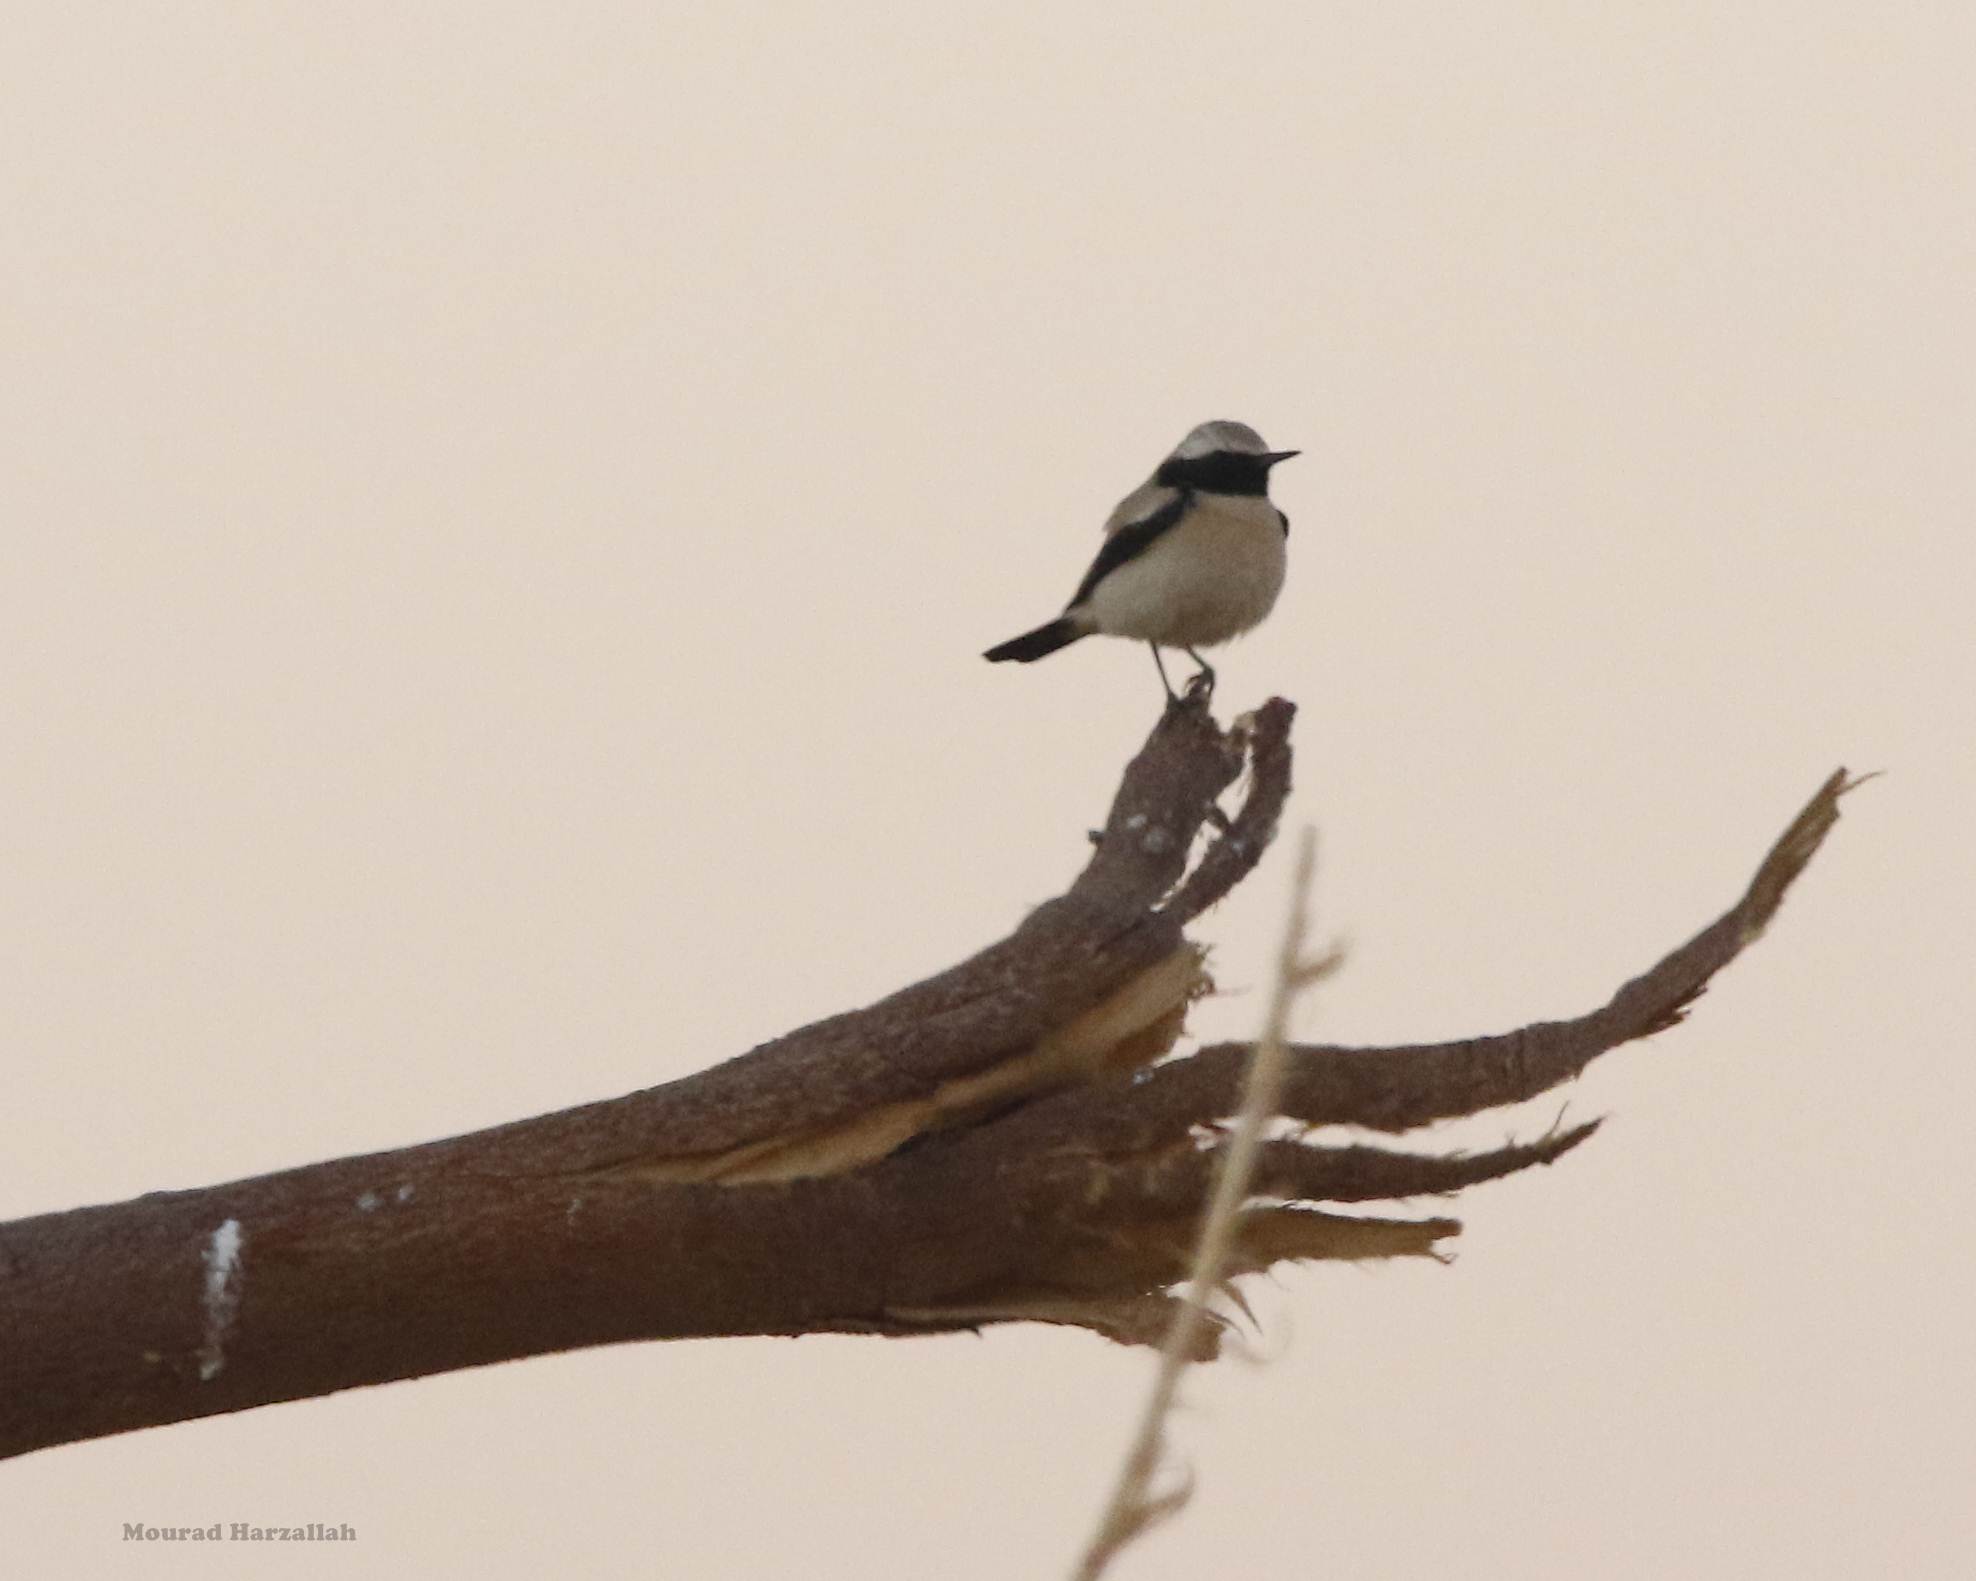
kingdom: Animalia
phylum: Chordata
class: Aves
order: Passeriformes
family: Muscicapidae
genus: Oenanthe
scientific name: Oenanthe deserti
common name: Desert wheatear
